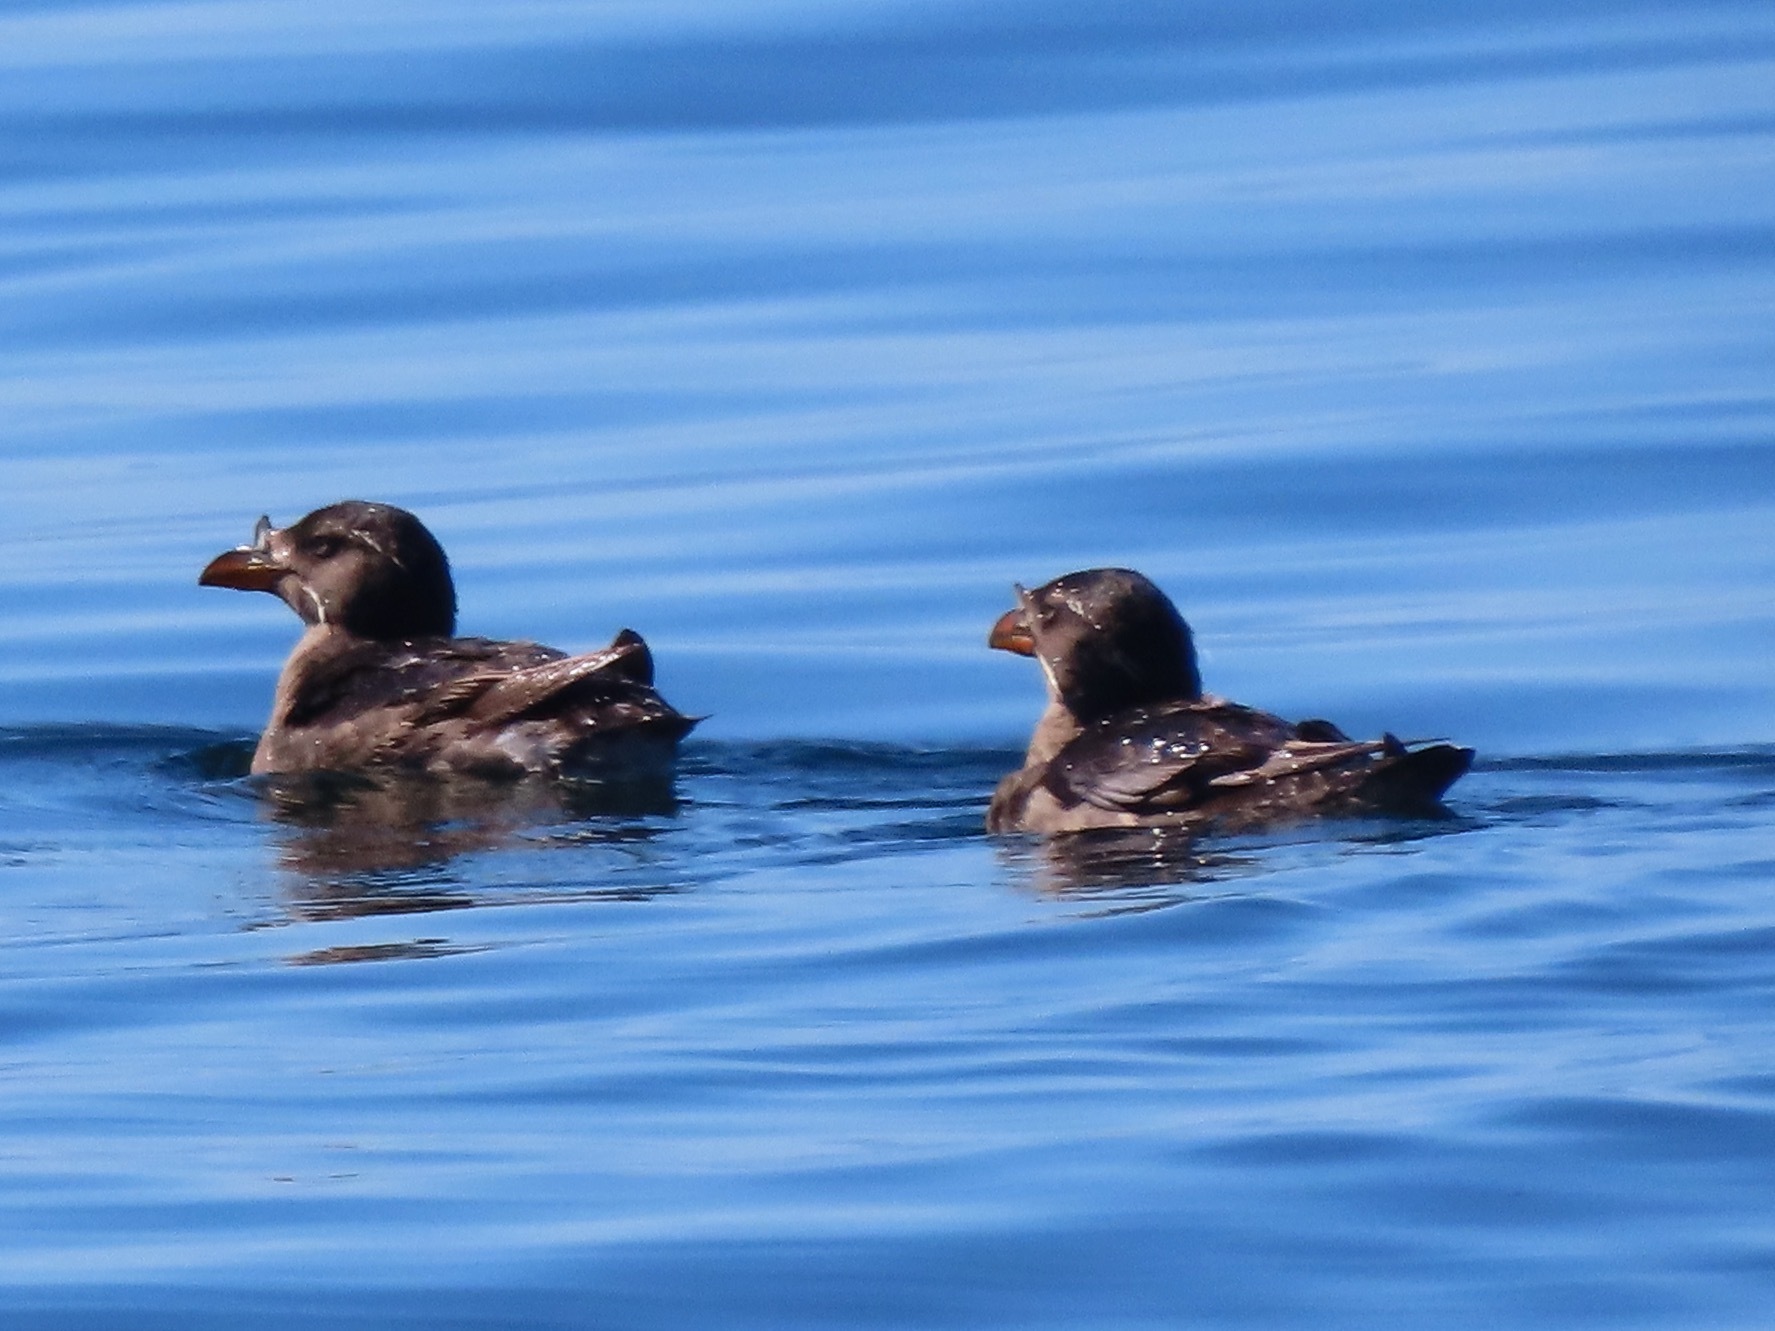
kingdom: Animalia
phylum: Chordata
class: Aves
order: Charadriiformes
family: Alcidae
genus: Cerorhinca
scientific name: Cerorhinca monocerata
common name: Rhinoceros auklet
